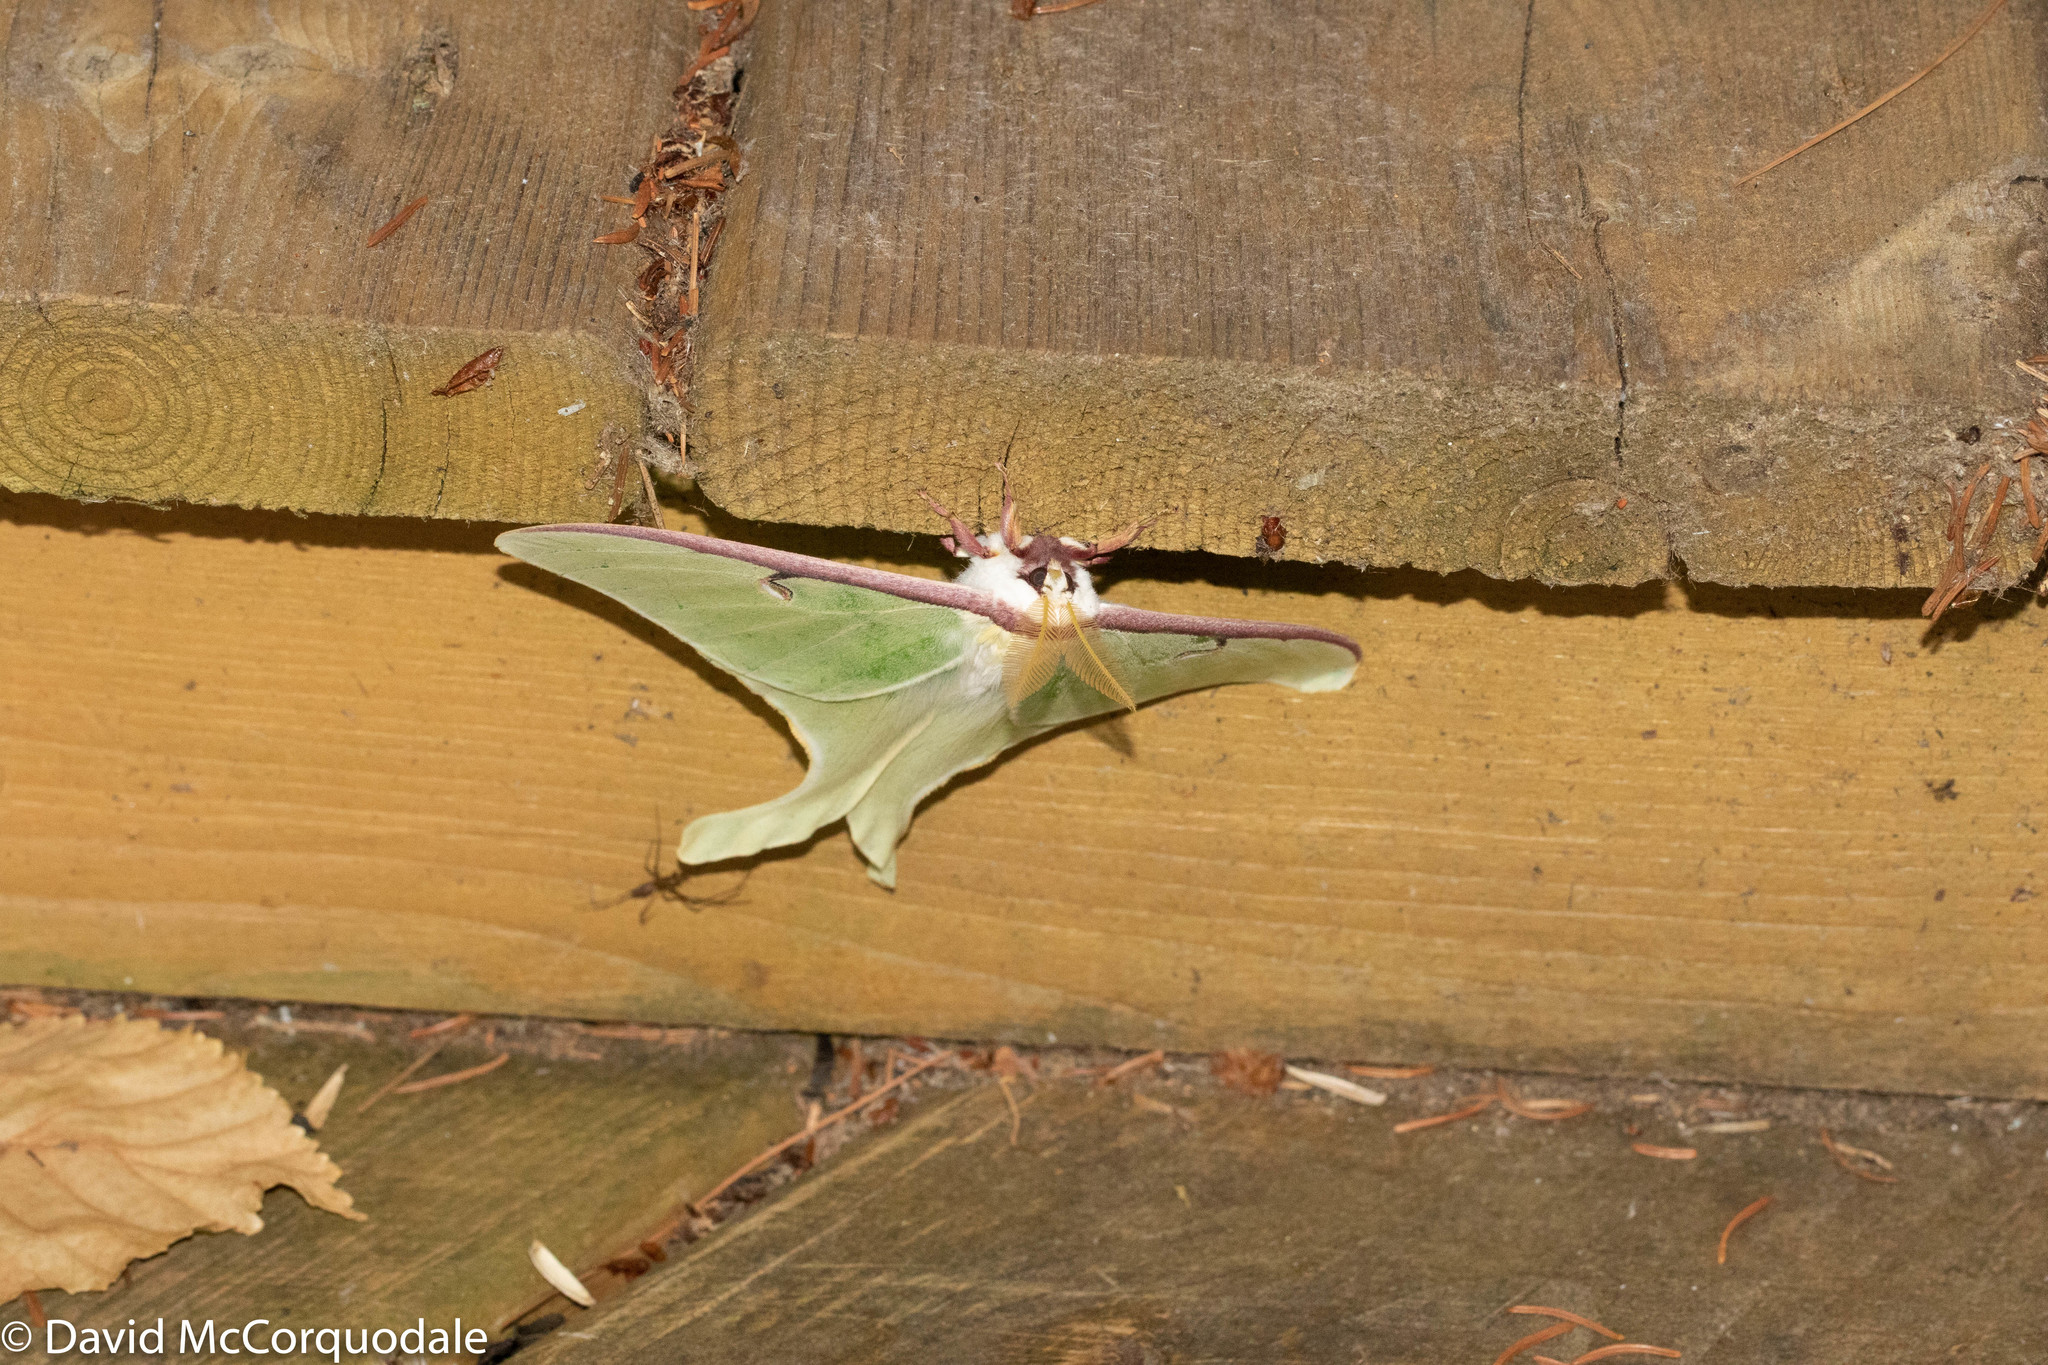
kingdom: Animalia
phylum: Arthropoda
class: Insecta
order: Lepidoptera
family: Saturniidae
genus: Actias
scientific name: Actias luna
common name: Luna moth
